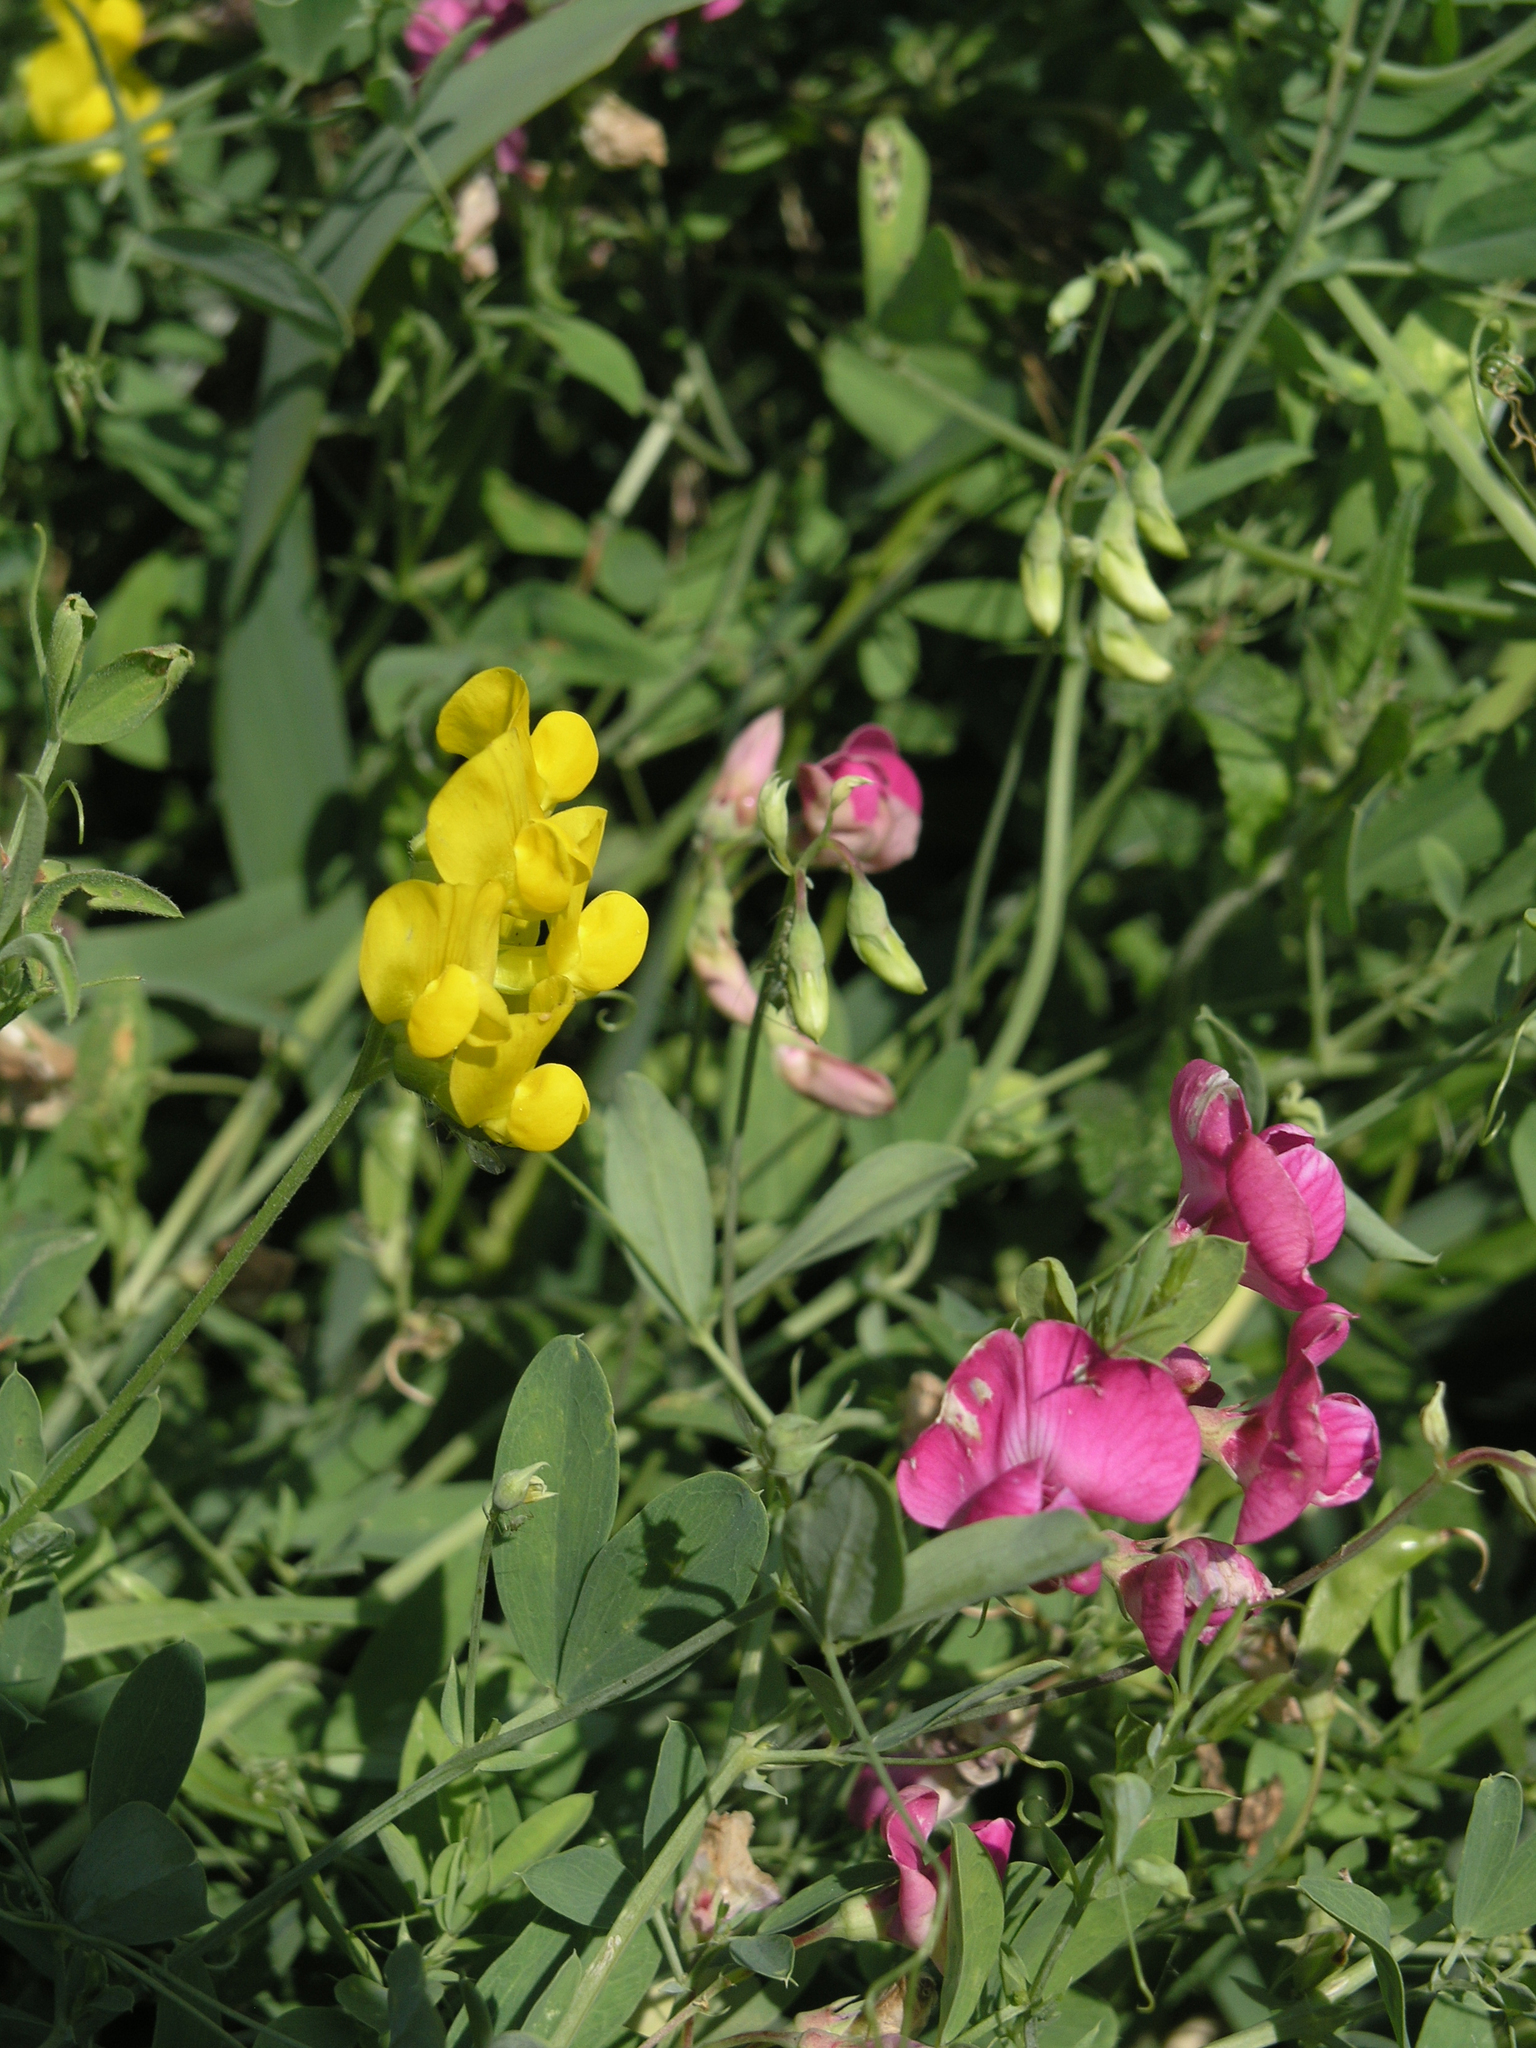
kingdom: Plantae
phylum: Tracheophyta
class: Magnoliopsida
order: Fabales
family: Fabaceae
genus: Lathyrus
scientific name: Lathyrus pratensis
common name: Meadow vetchling
